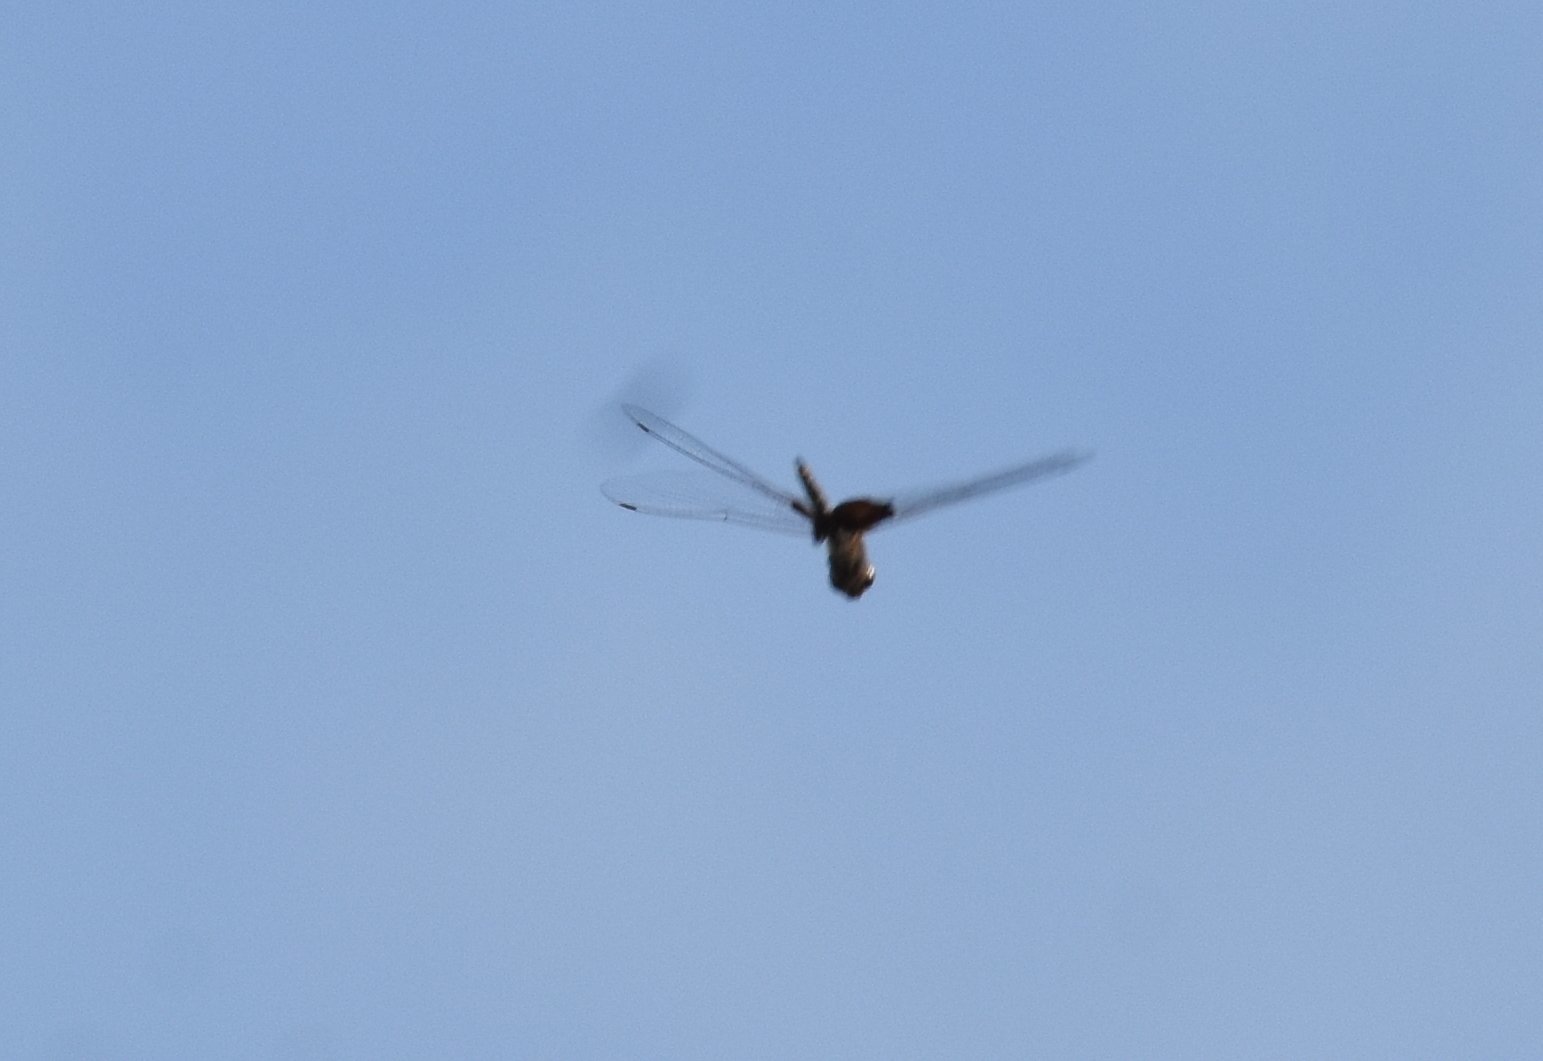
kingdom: Animalia
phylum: Arthropoda
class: Insecta
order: Odonata
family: Libellulidae
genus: Tramea
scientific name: Tramea lacerata
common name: Black saddlebags
